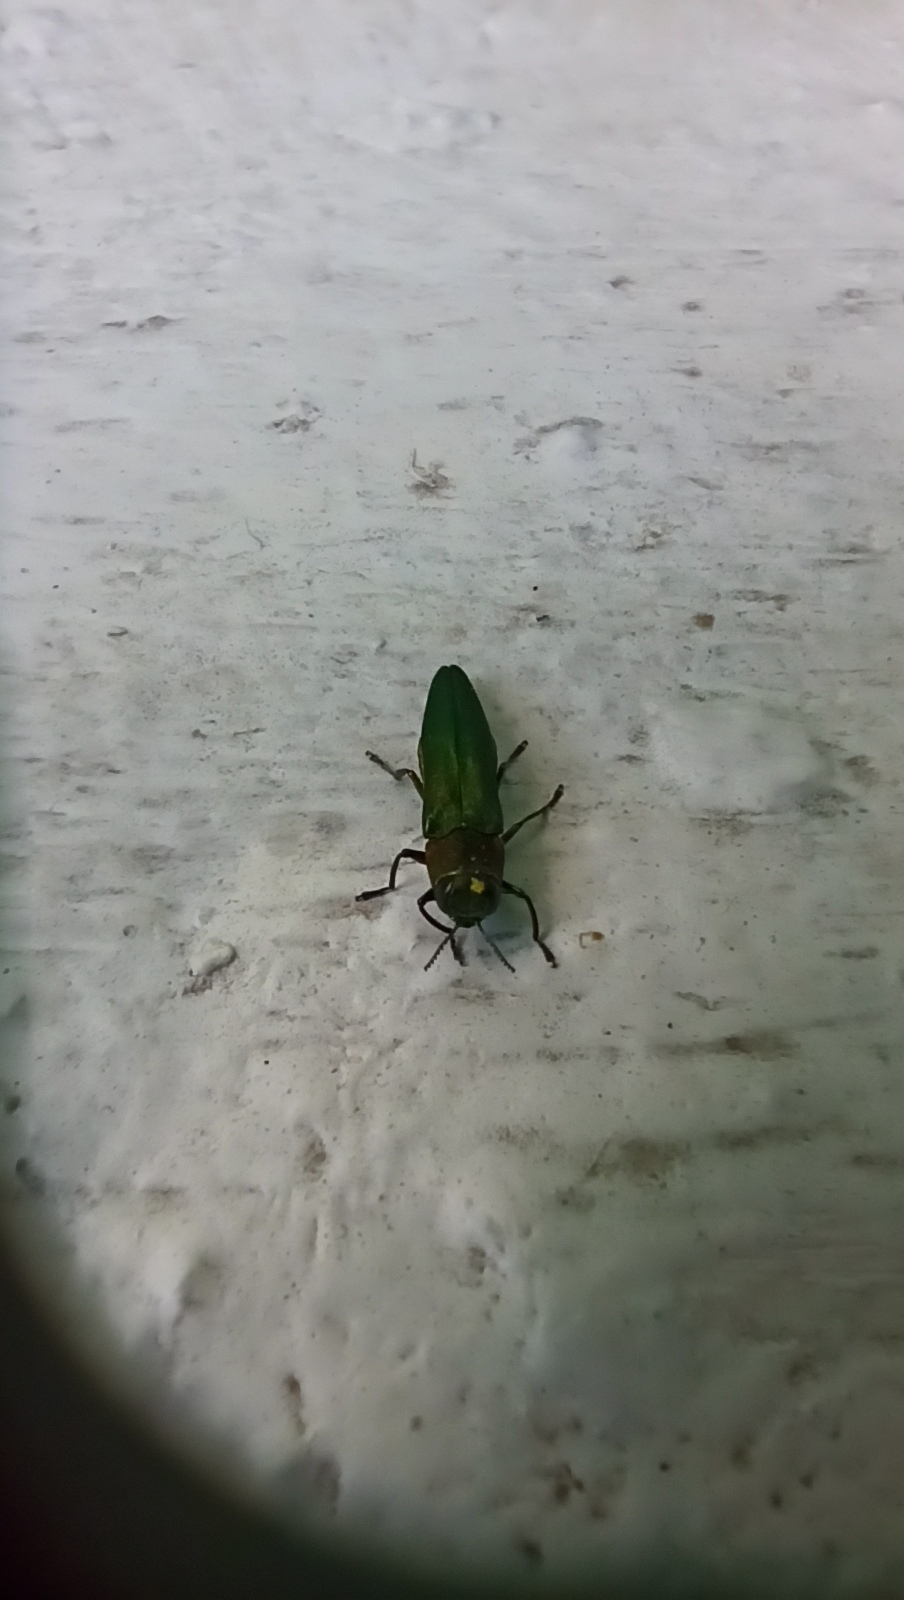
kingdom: Animalia
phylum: Arthropoda
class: Insecta
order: Coleoptera
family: Buprestidae
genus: Agrilus
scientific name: Agrilus planipennis
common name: Emerald ash borer
